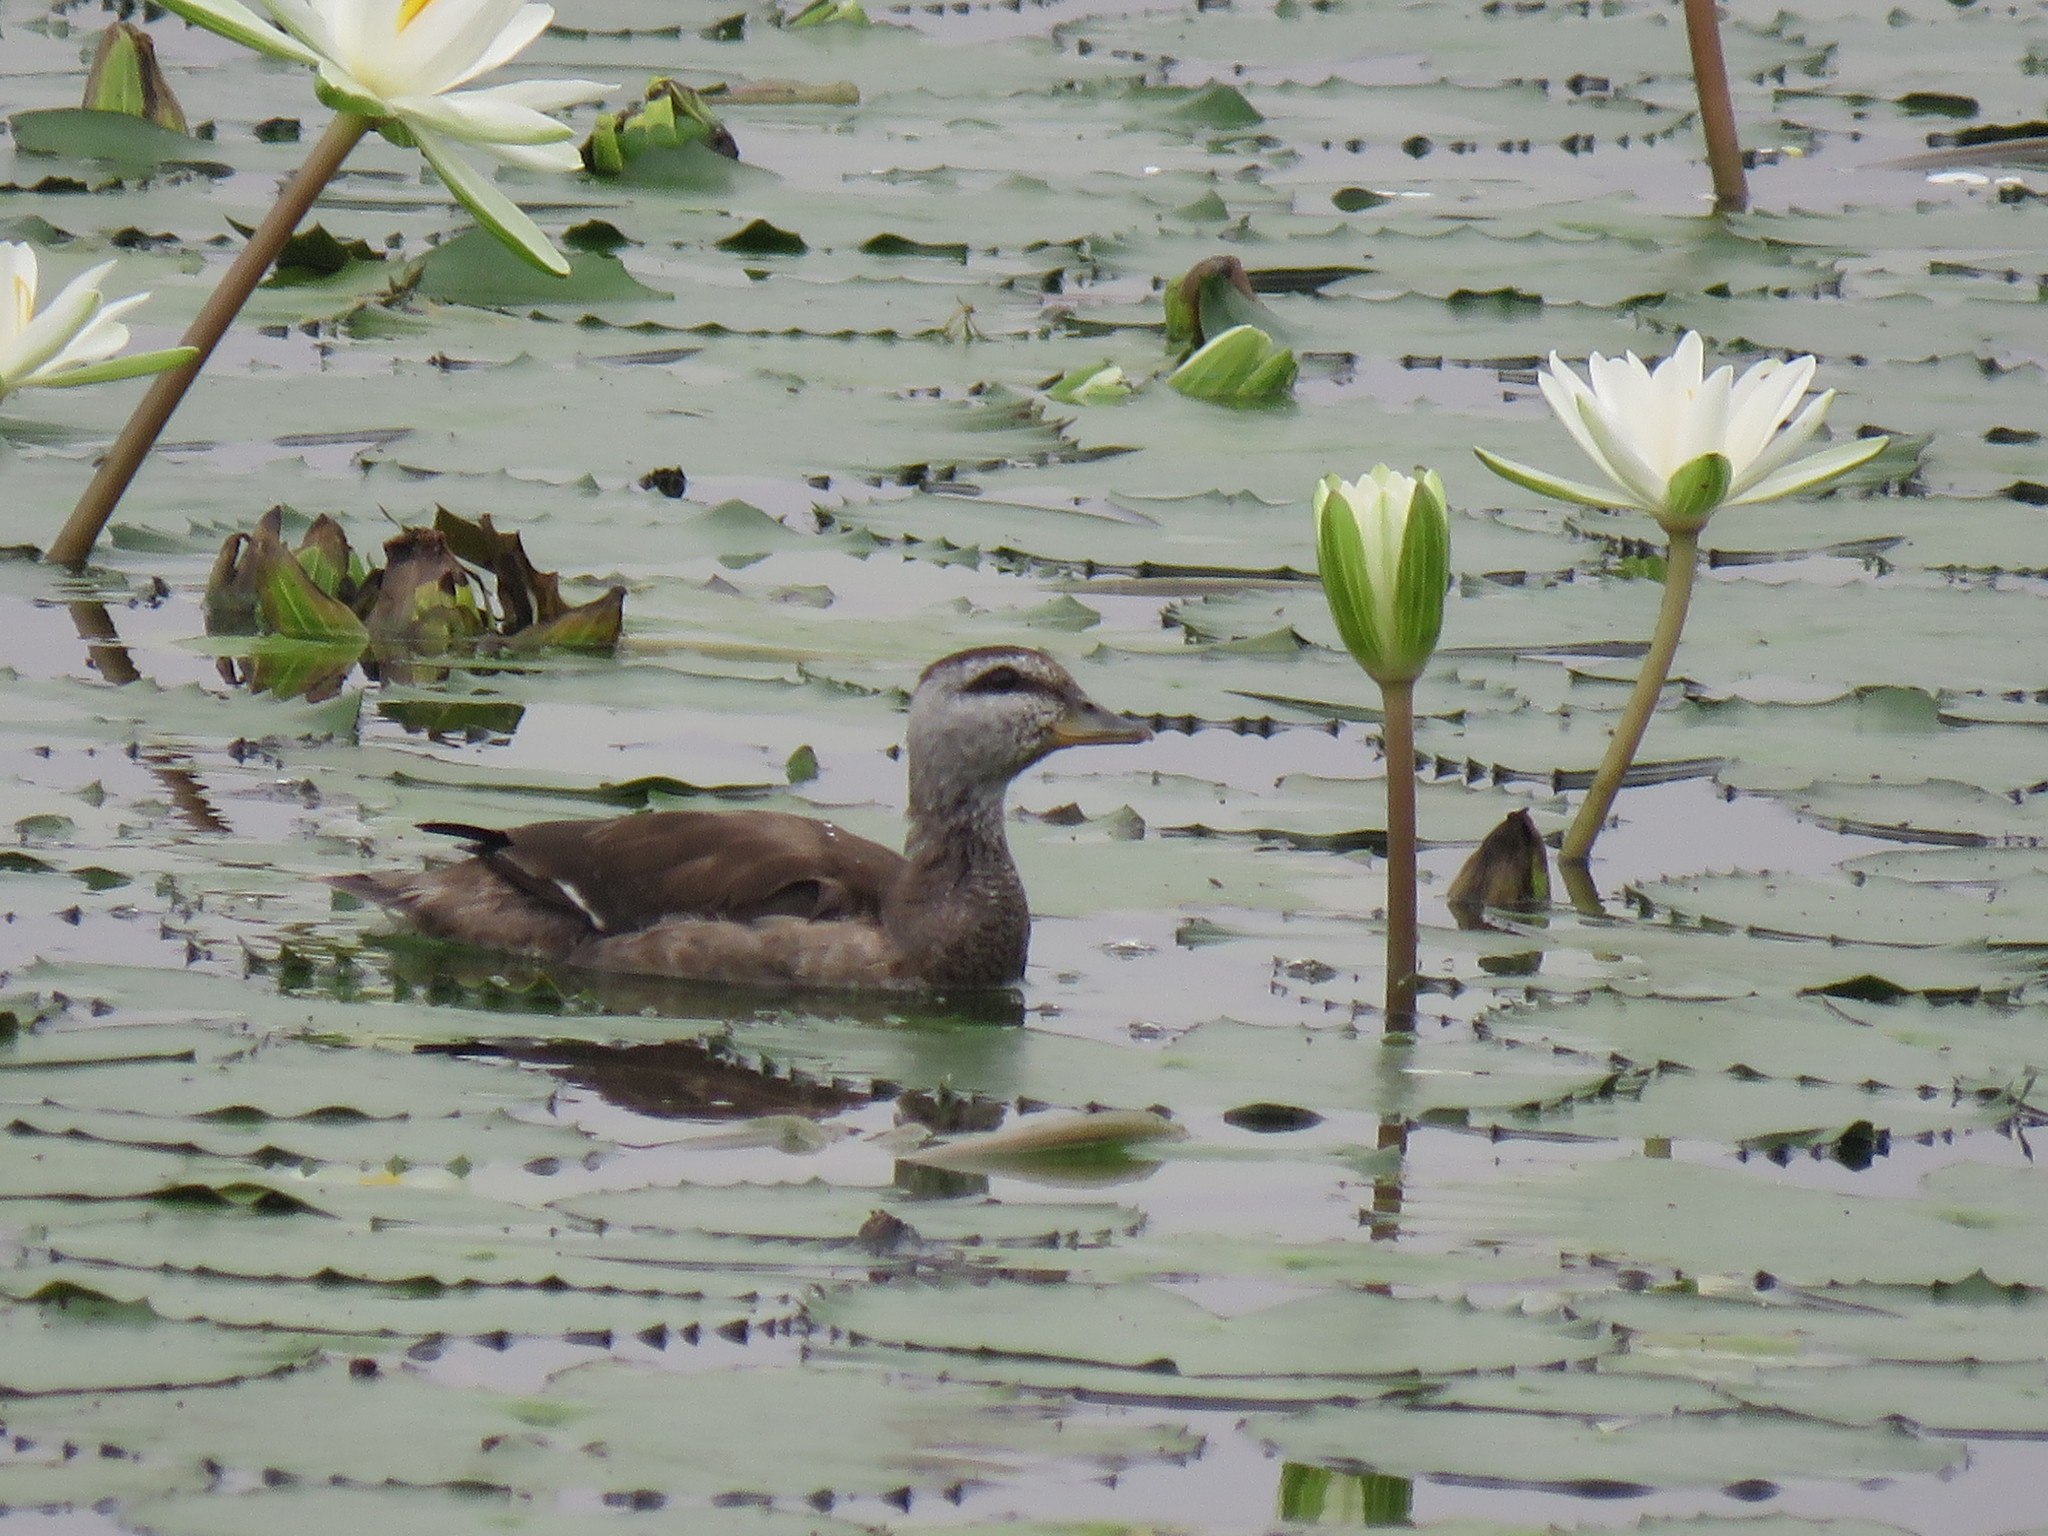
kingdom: Animalia
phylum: Chordata
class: Aves
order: Anseriformes
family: Anatidae
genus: Nettapus
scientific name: Nettapus coromandelianus
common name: Cotton pygmy-goose
